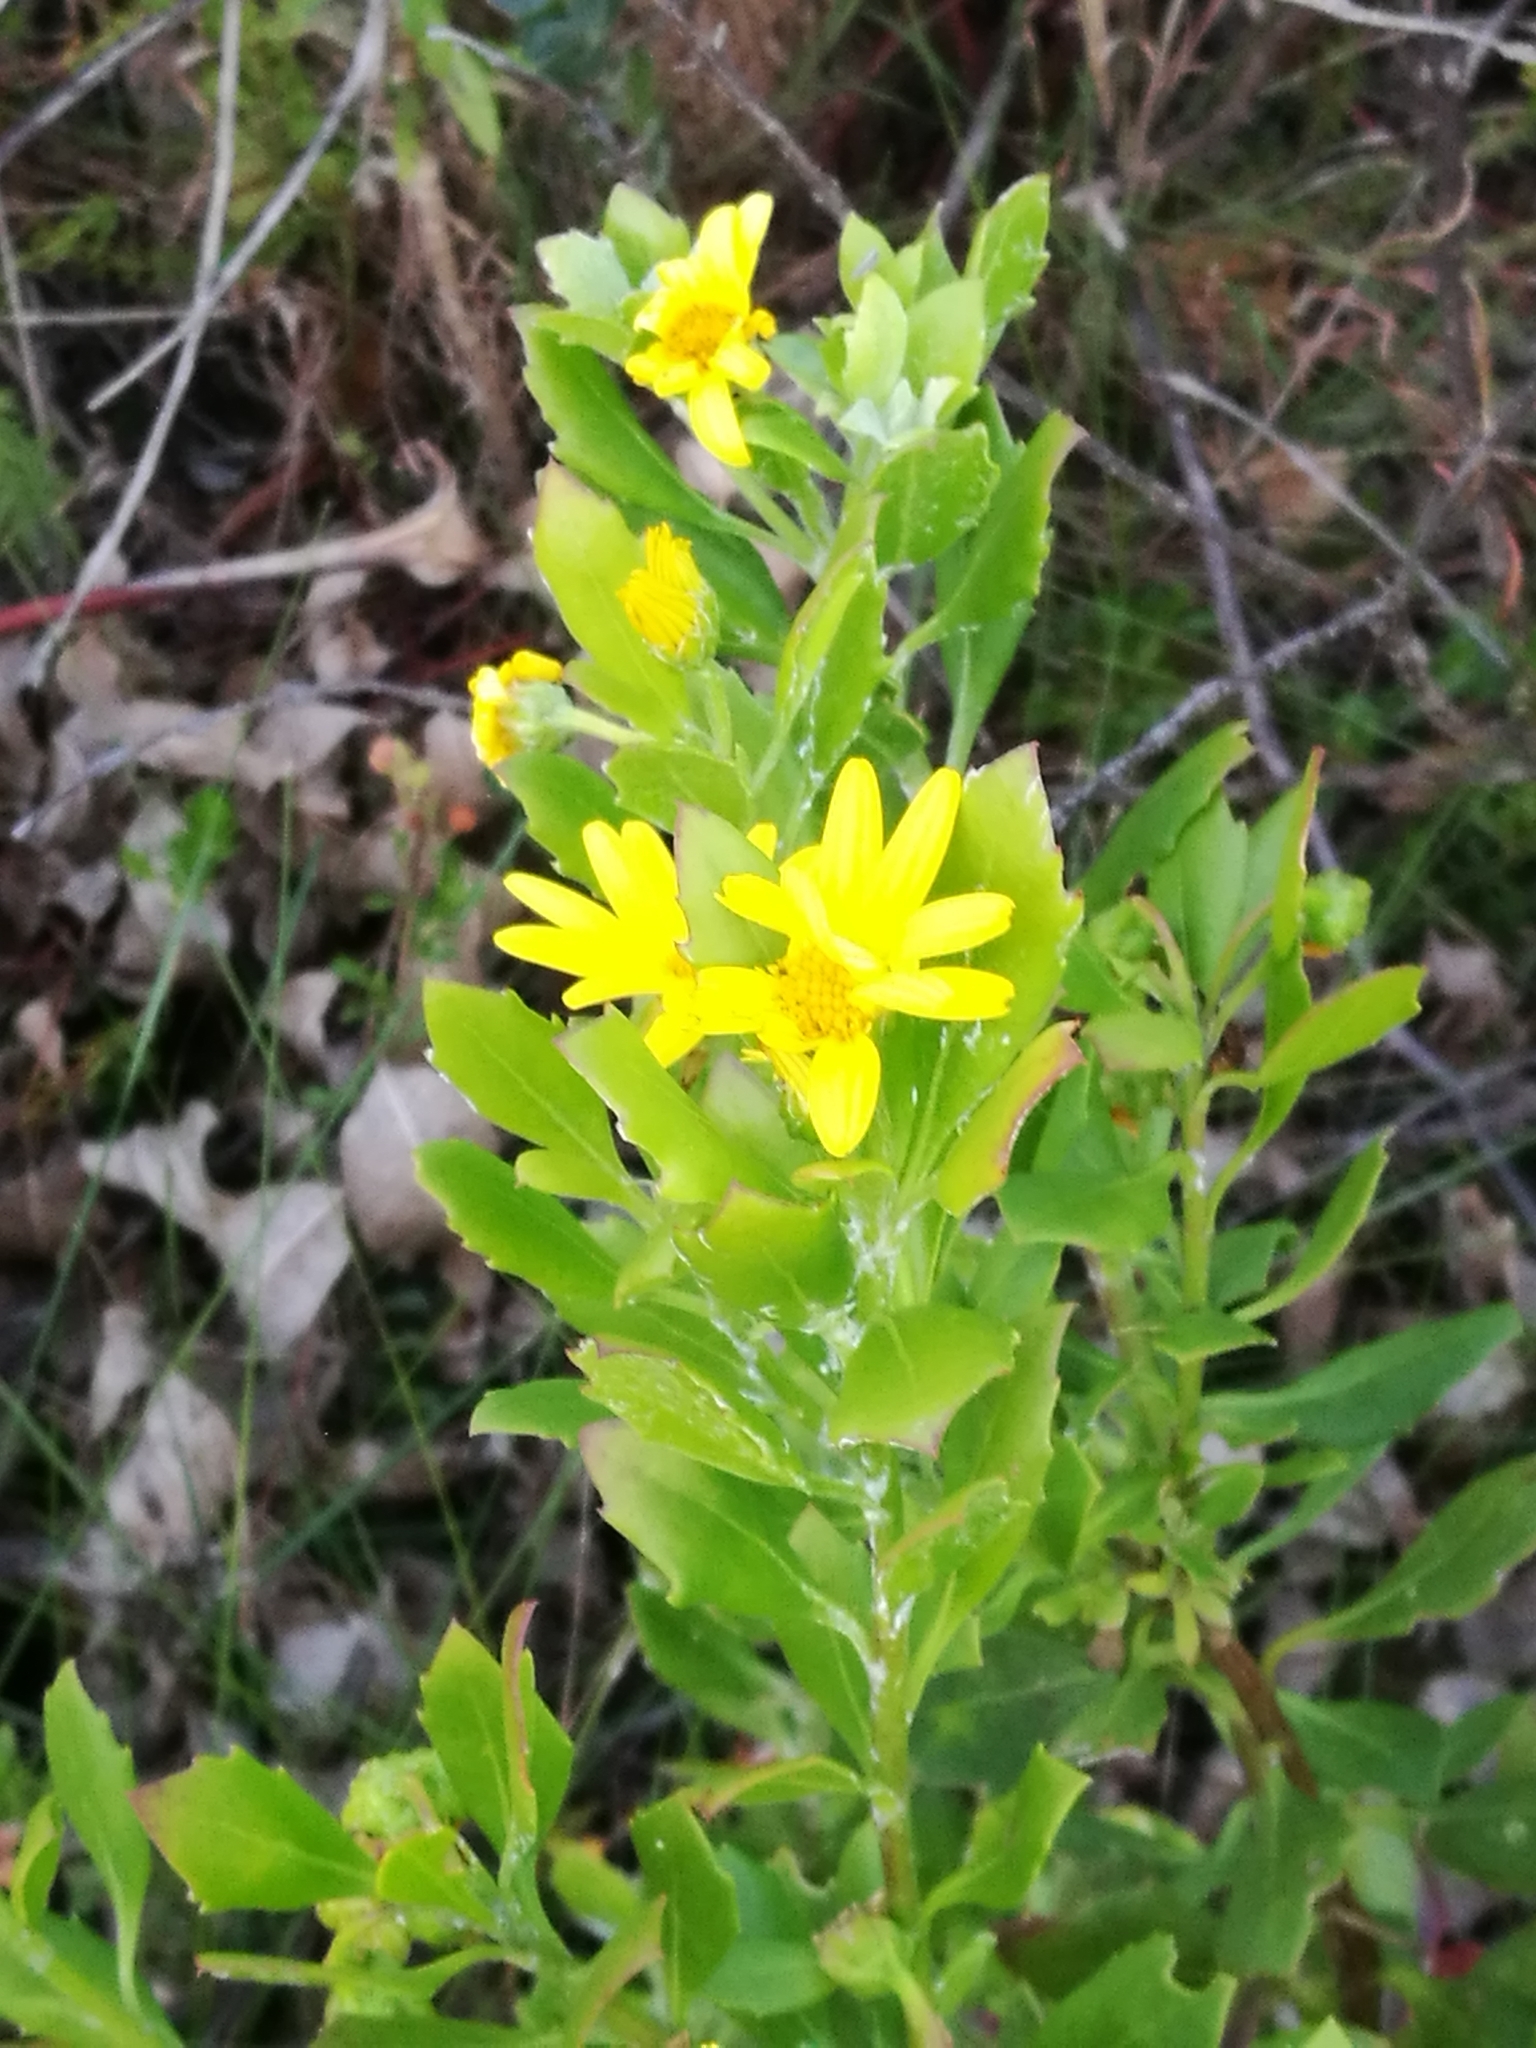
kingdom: Plantae
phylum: Tracheophyta
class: Magnoliopsida
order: Asterales
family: Asteraceae
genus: Osteospermum
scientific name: Osteospermum moniliferum
